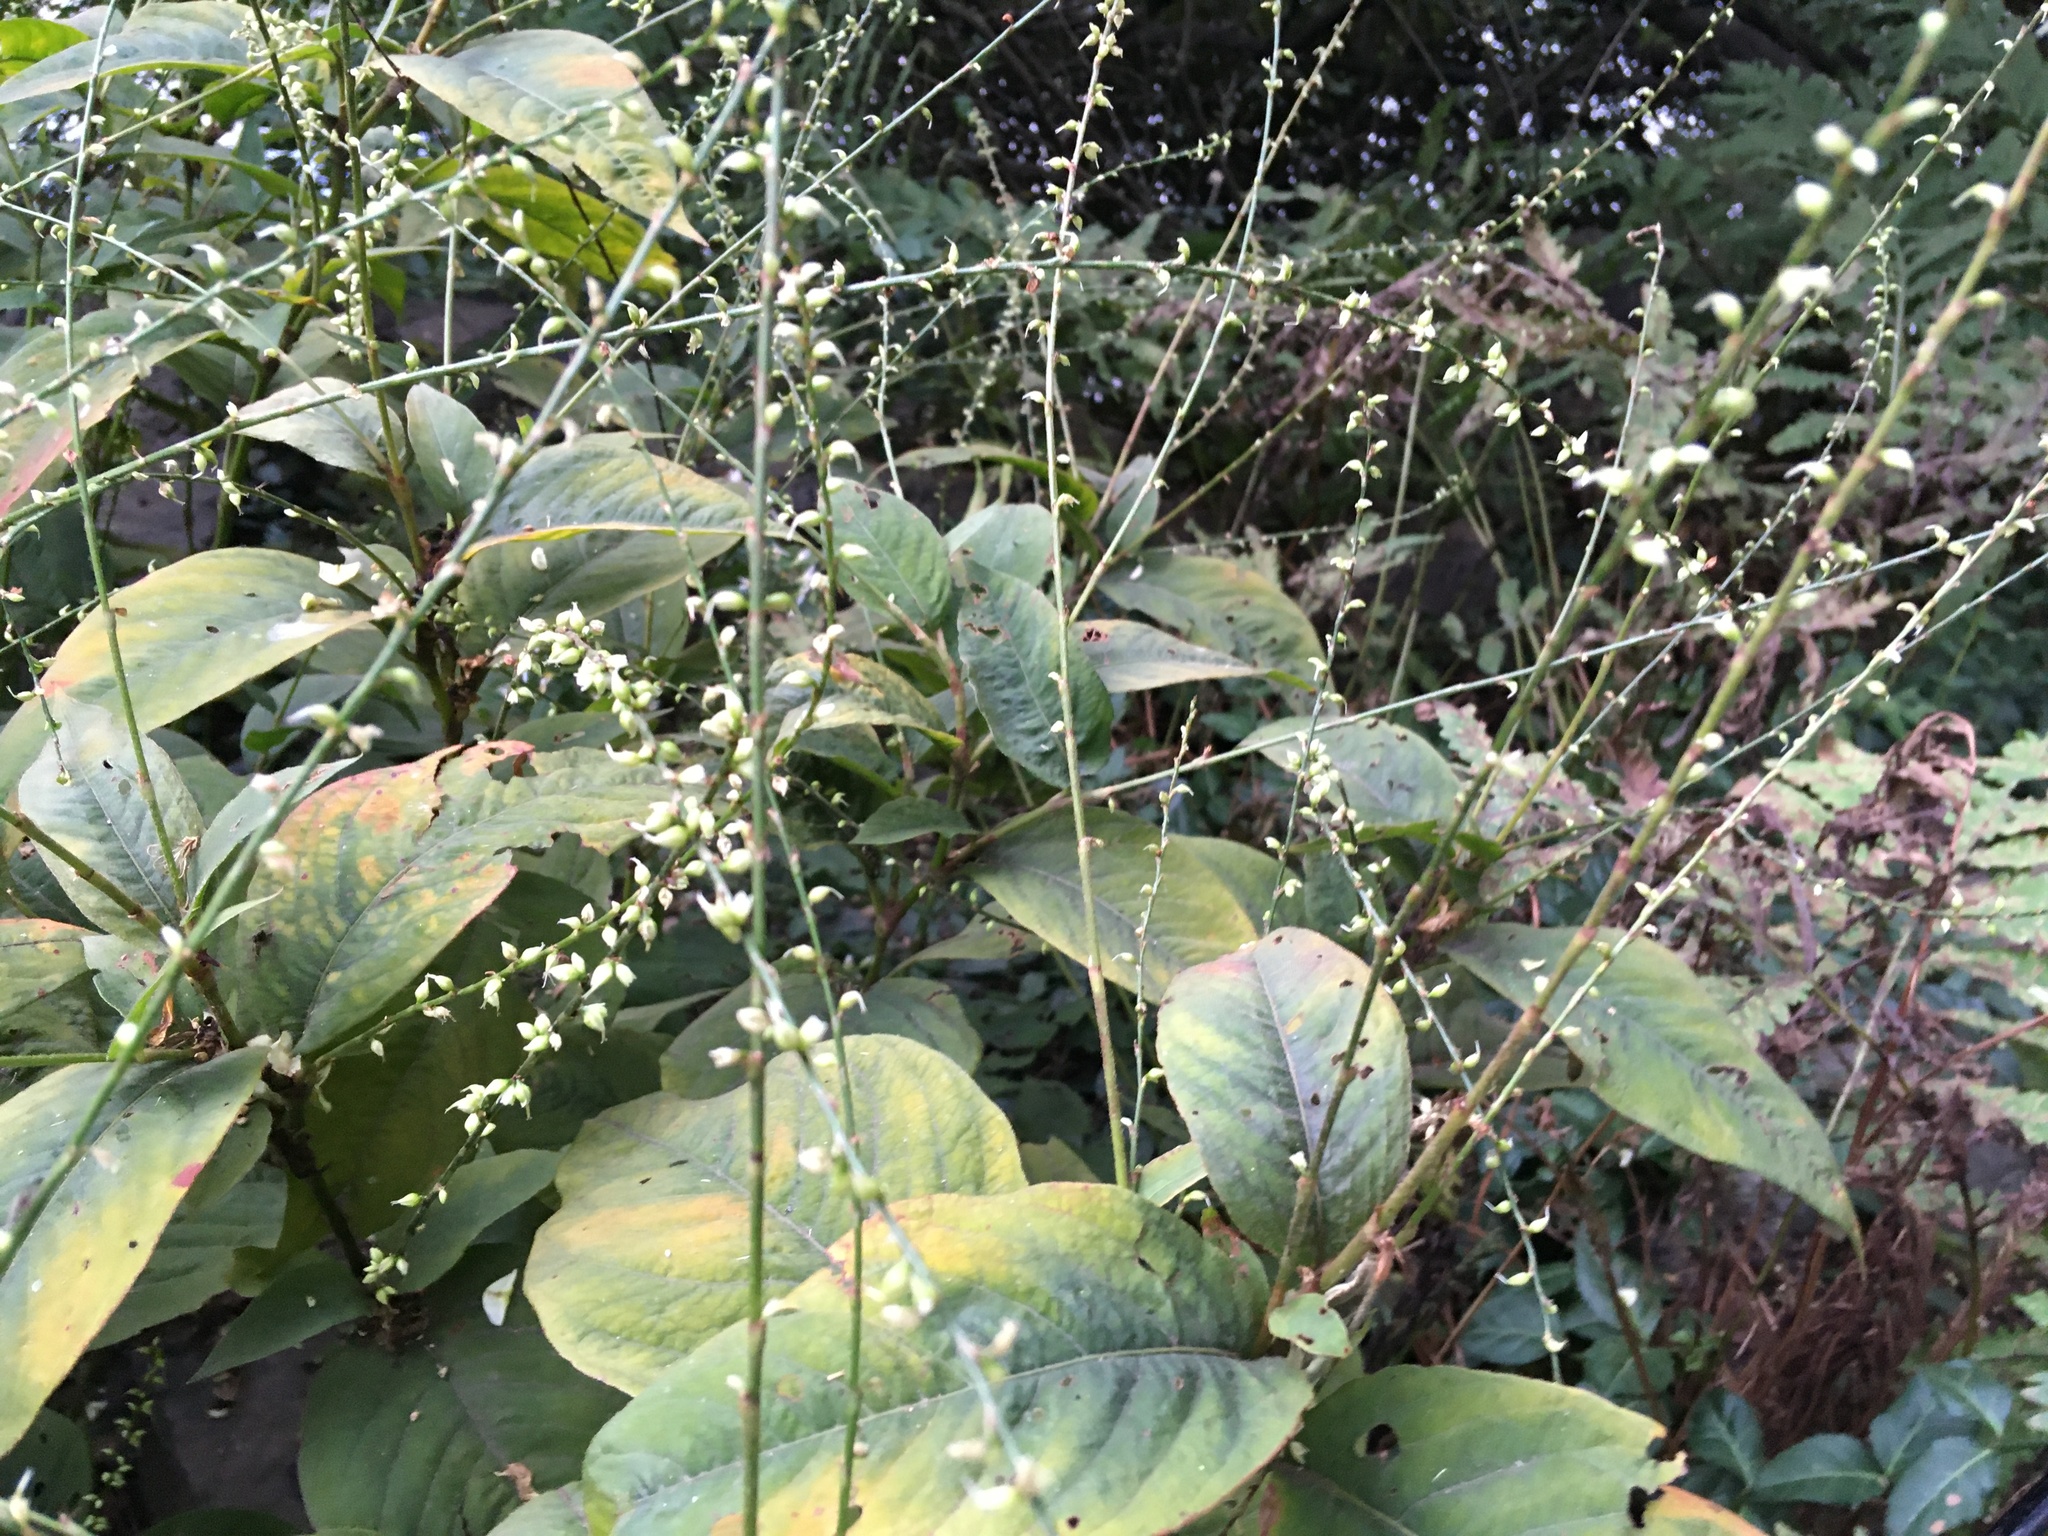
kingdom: Plantae
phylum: Tracheophyta
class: Magnoliopsida
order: Caryophyllales
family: Polygonaceae
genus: Persicaria
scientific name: Persicaria virginiana
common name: Jumpseed
